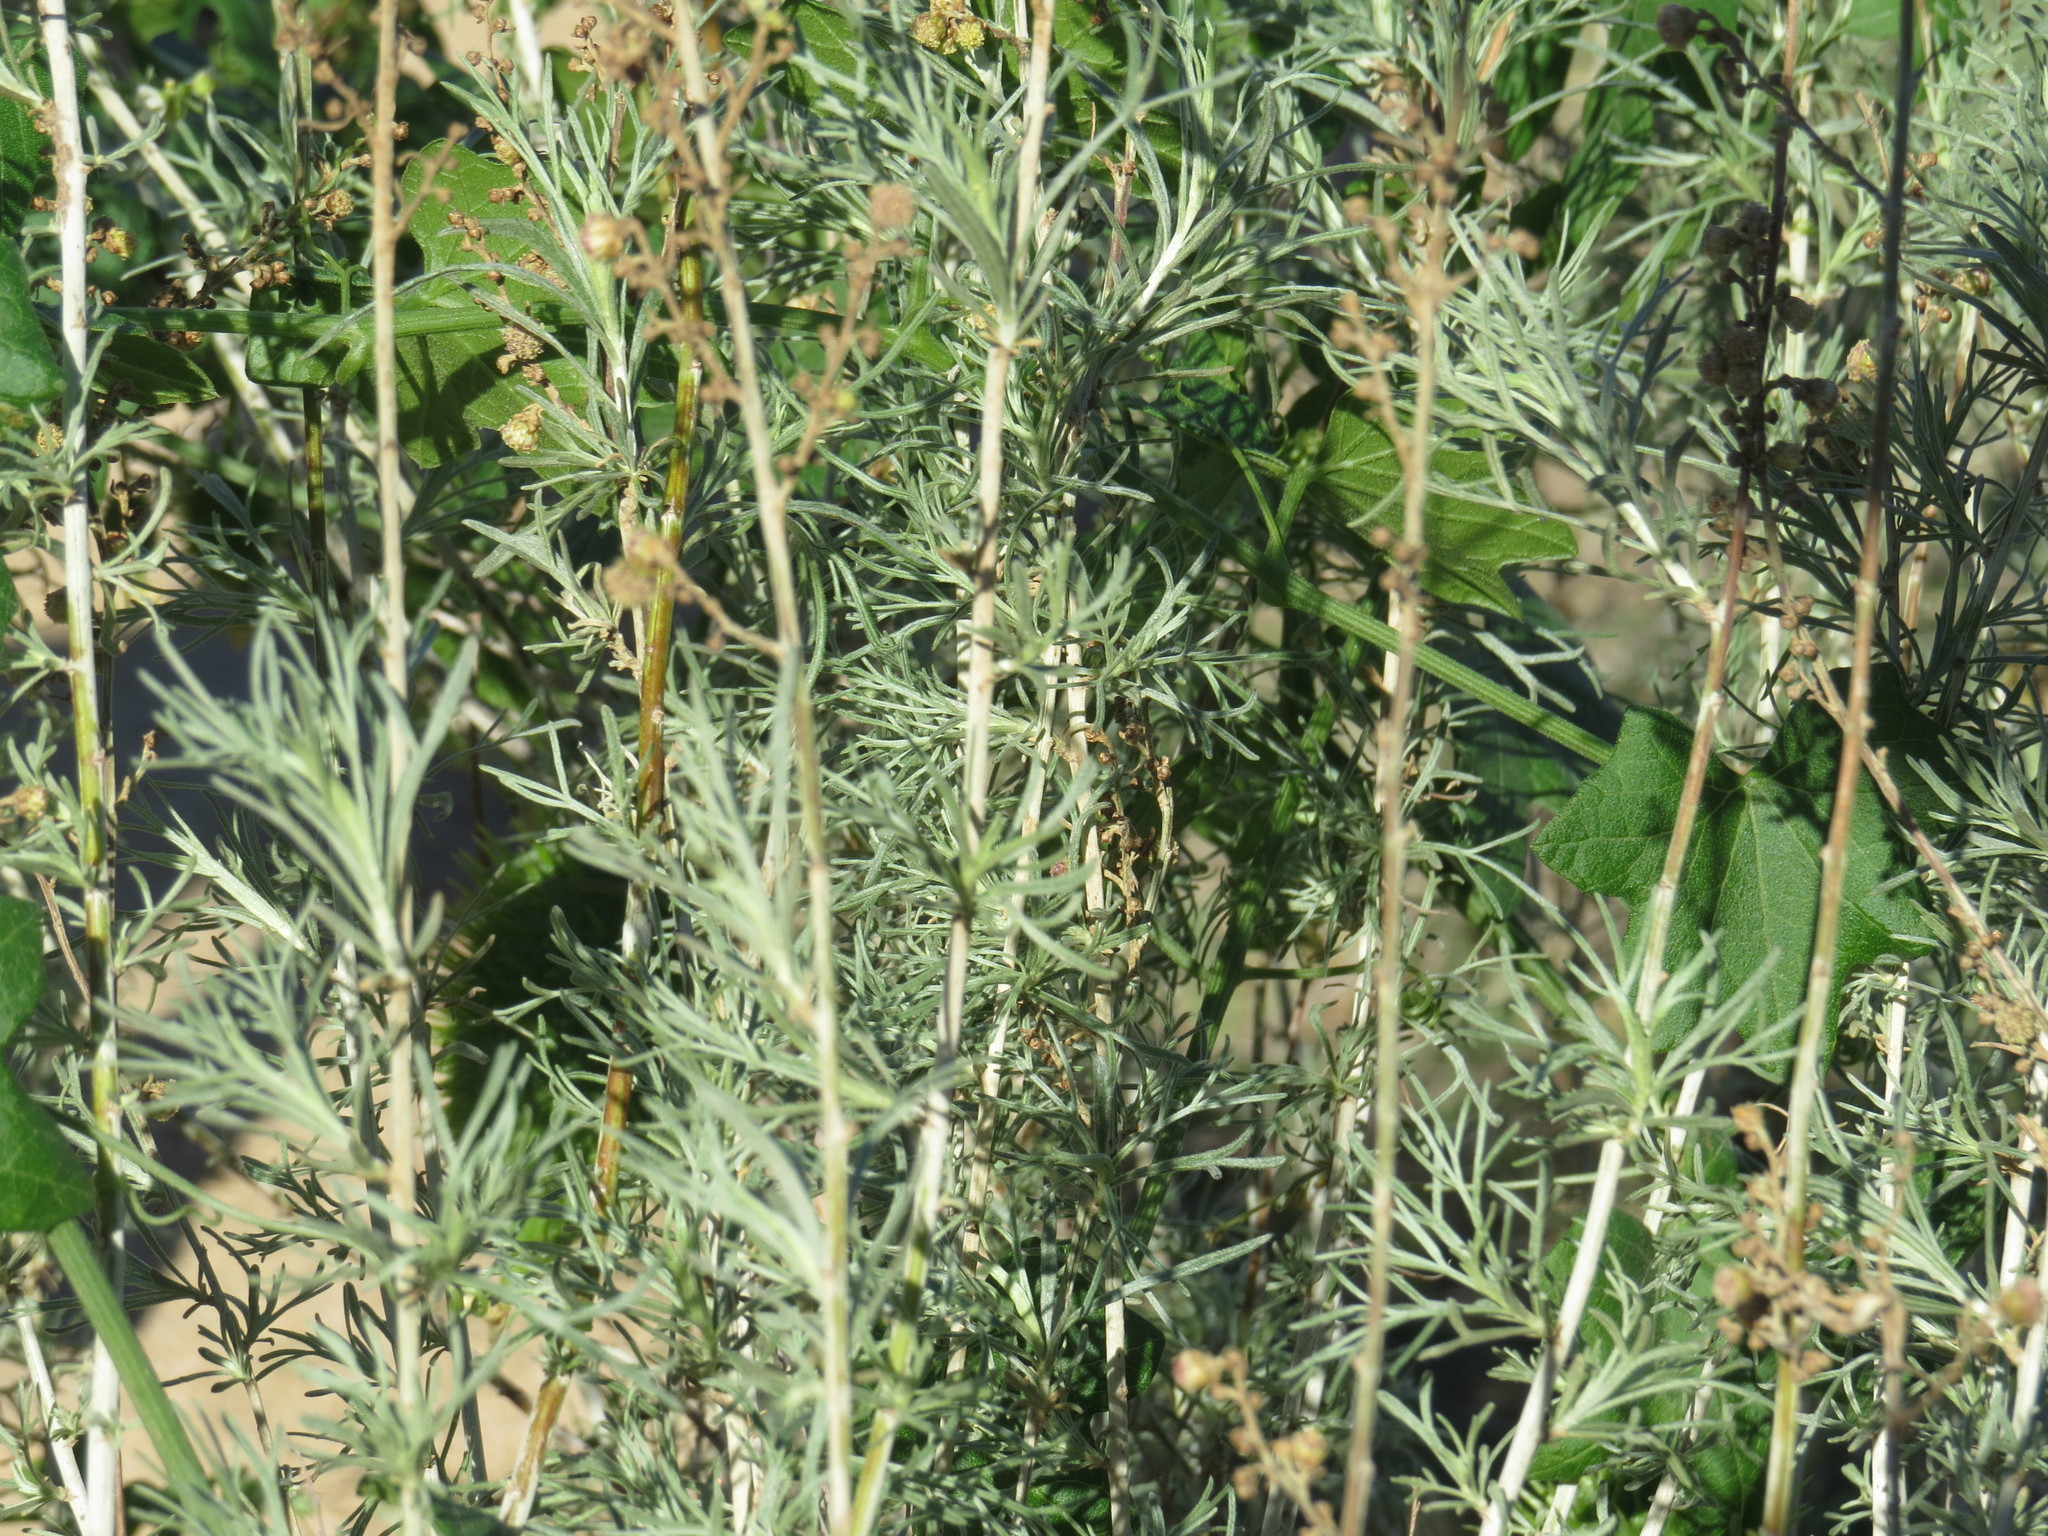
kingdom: Plantae
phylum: Tracheophyta
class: Magnoliopsida
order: Asterales
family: Asteraceae
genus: Artemisia
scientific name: Artemisia californica
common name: California sagebrush
